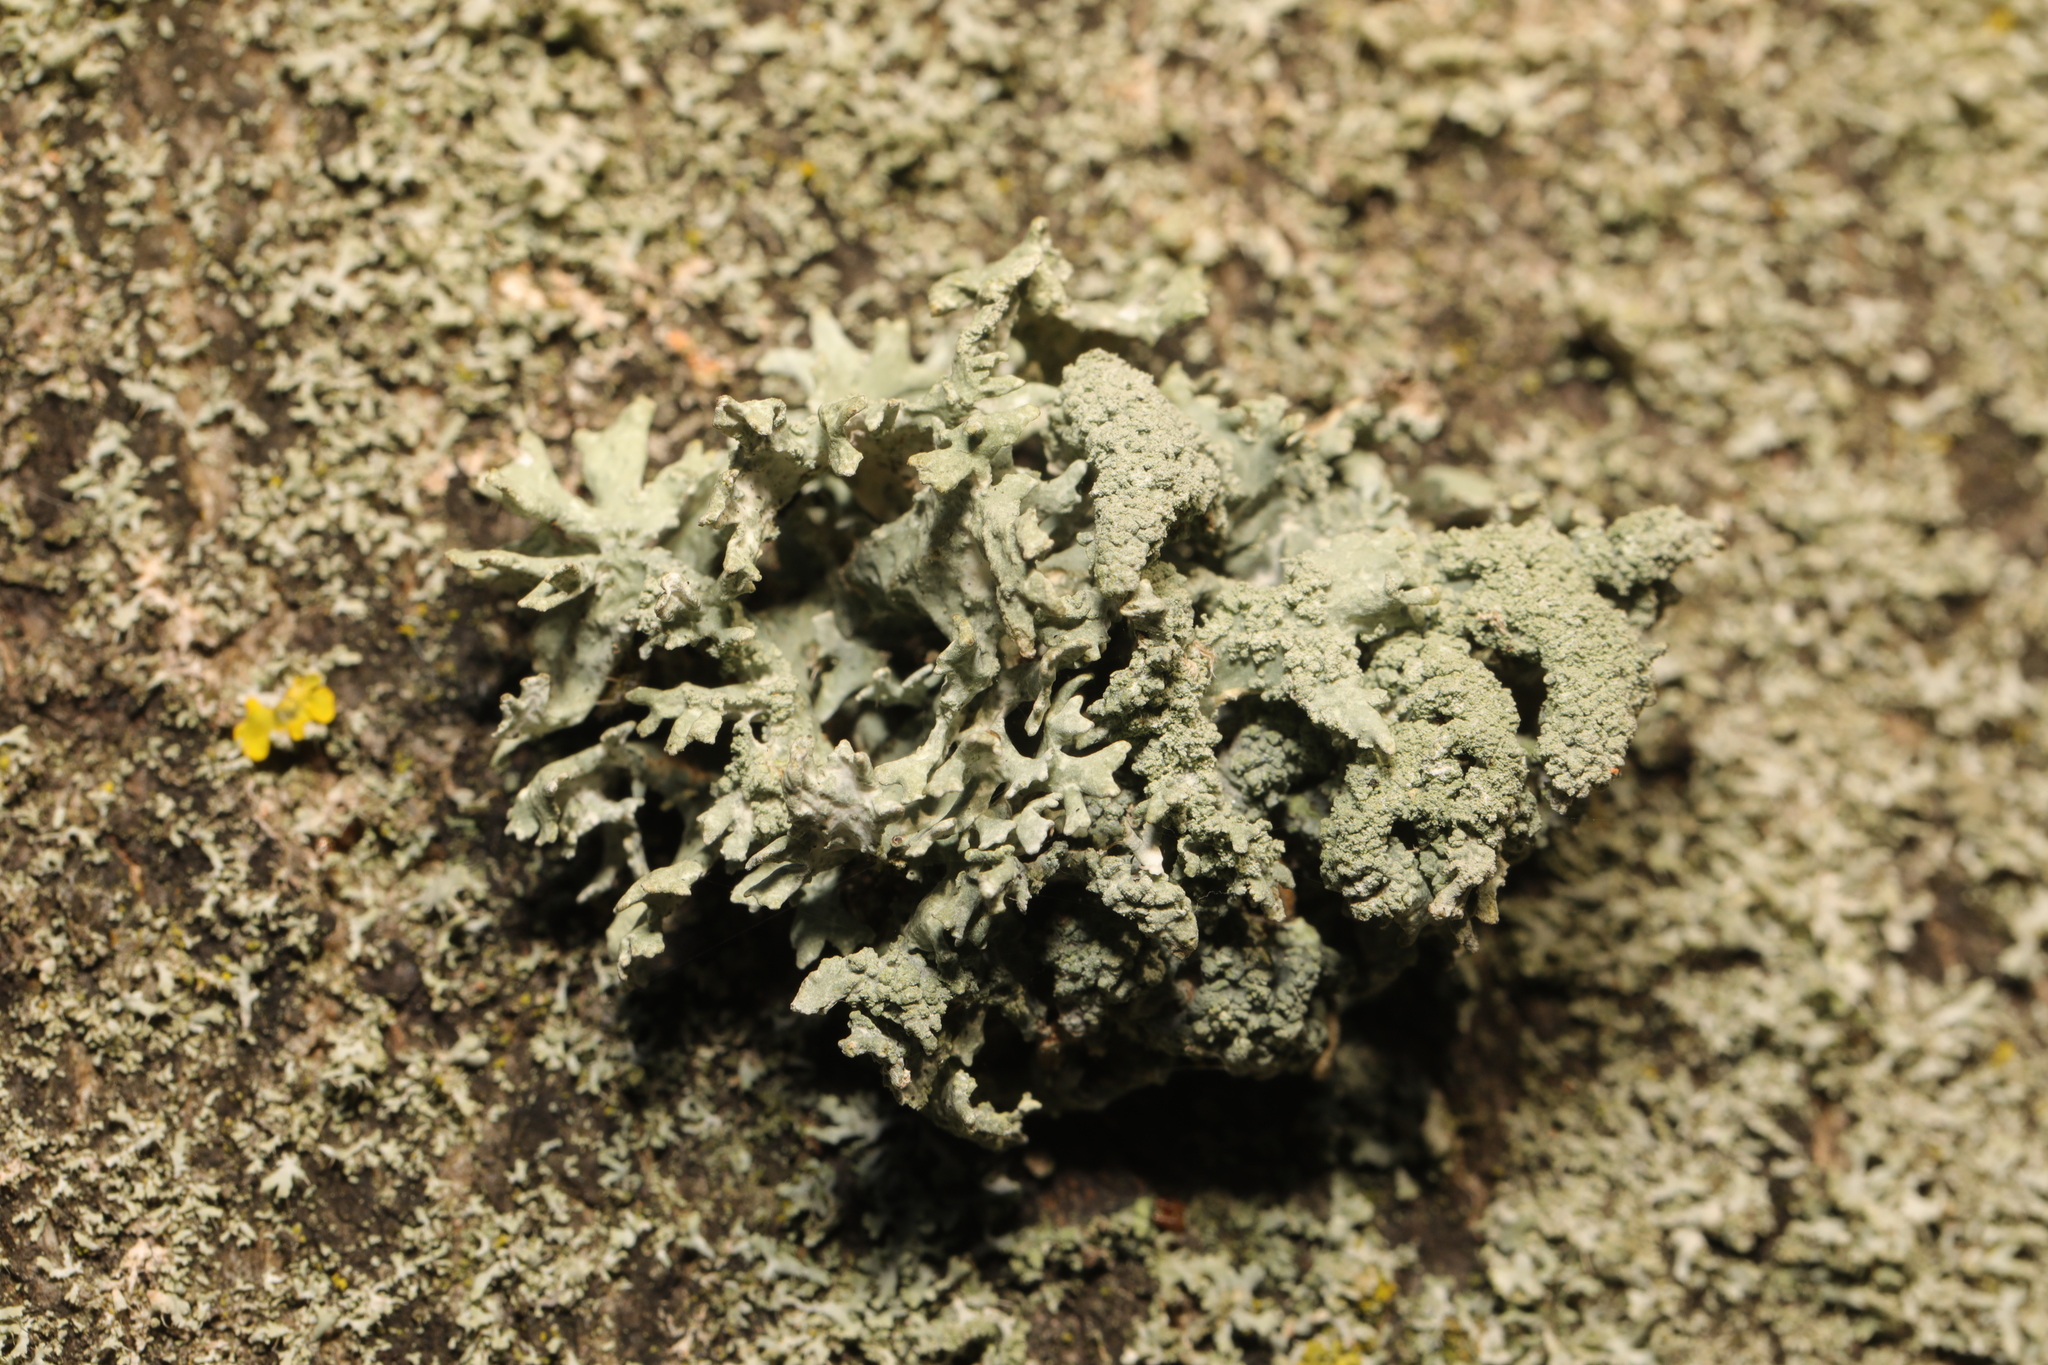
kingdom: Fungi
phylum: Ascomycota
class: Lecanoromycetes
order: Lecanorales
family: Parmeliaceae
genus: Evernia
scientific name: Evernia prunastri
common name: Oak moss
